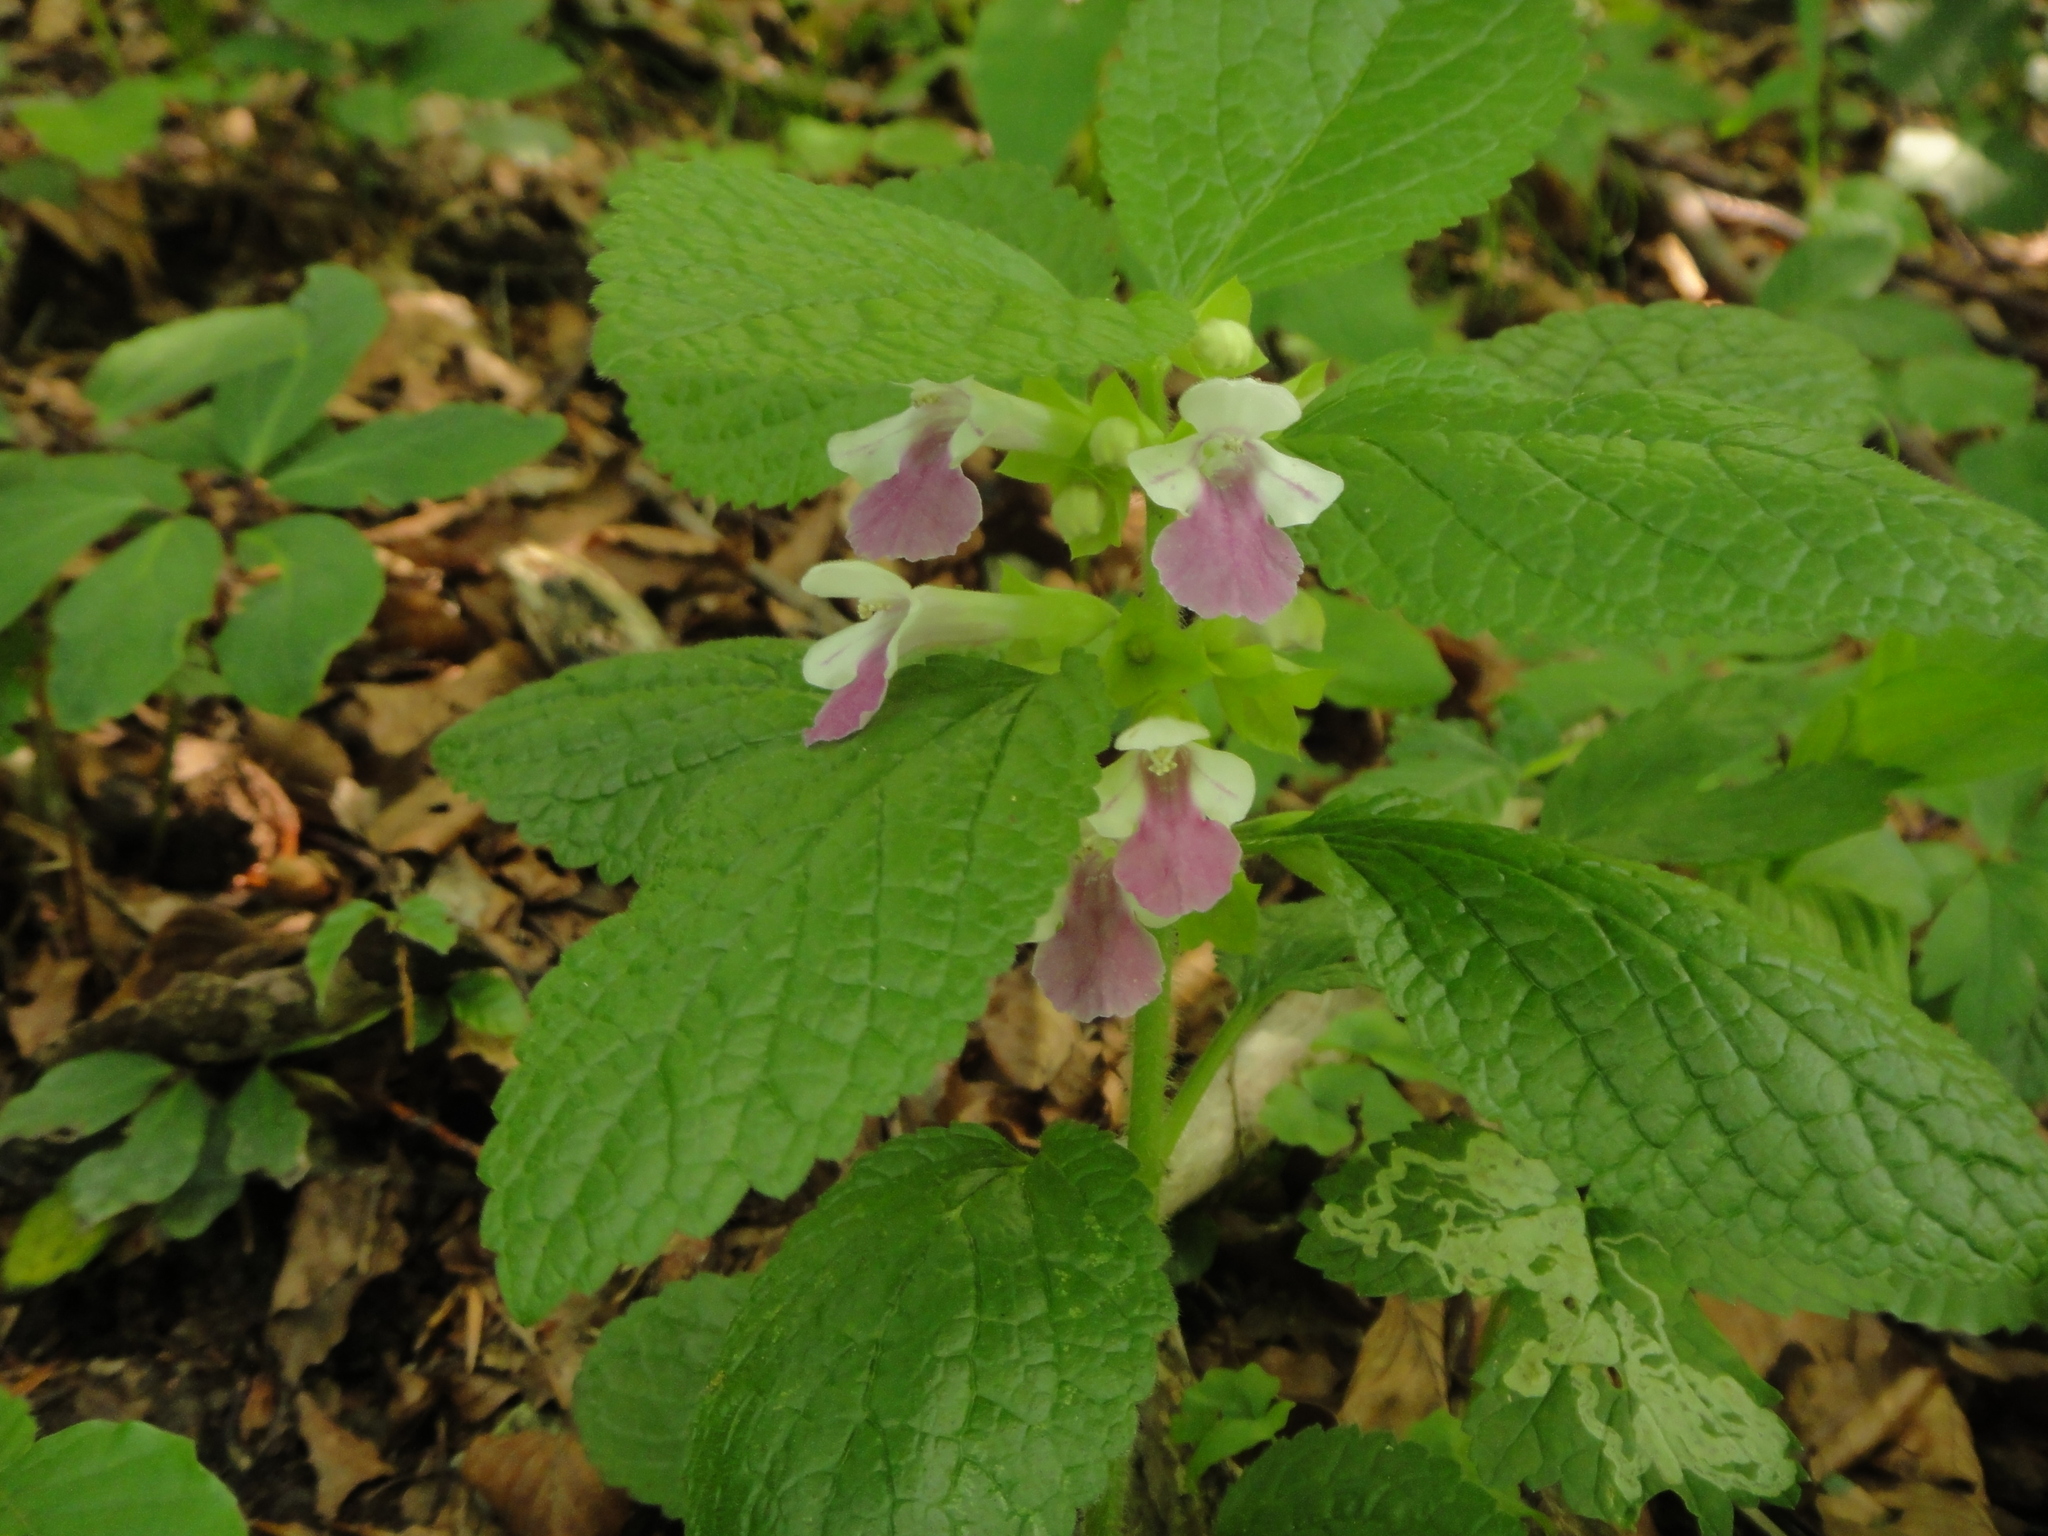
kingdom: Plantae
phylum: Tracheophyta
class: Magnoliopsida
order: Lamiales
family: Lamiaceae
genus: Melittis
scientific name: Melittis melissophyllum
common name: Bastard balm
